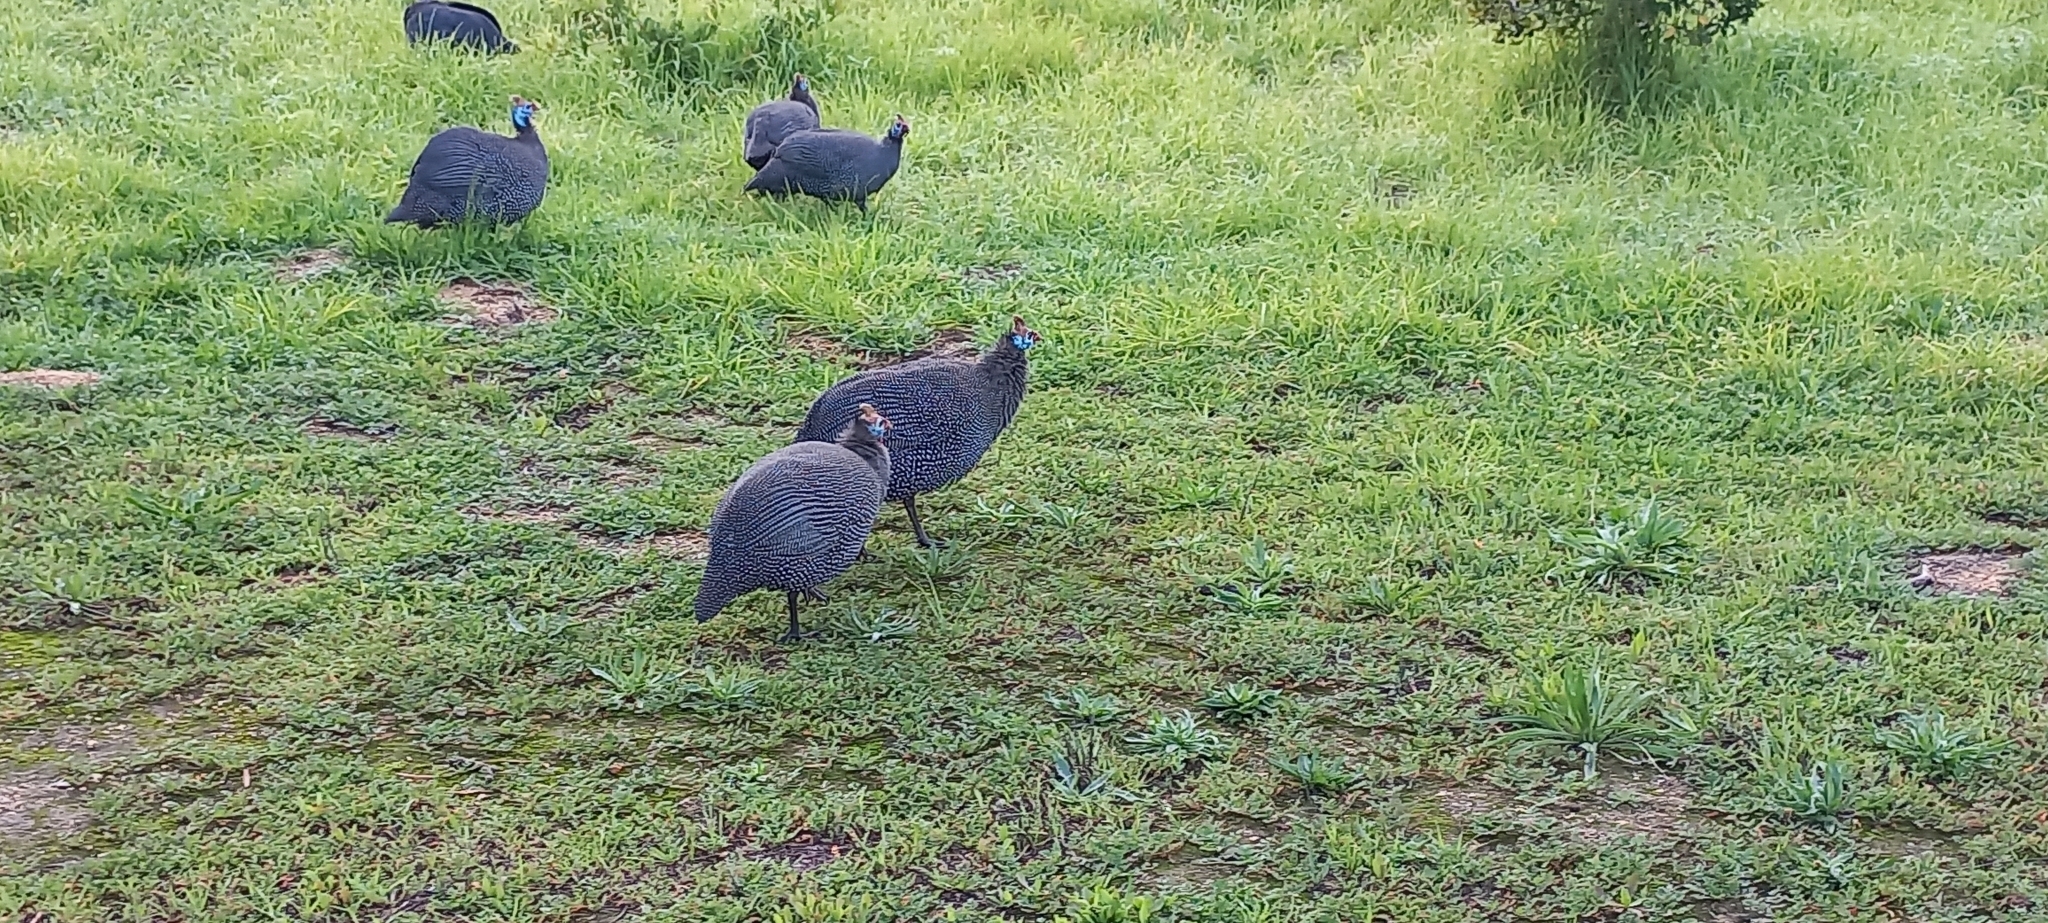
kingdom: Animalia
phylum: Chordata
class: Aves
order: Galliformes
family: Numididae
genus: Numida
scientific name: Numida meleagris
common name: Helmeted guineafowl
